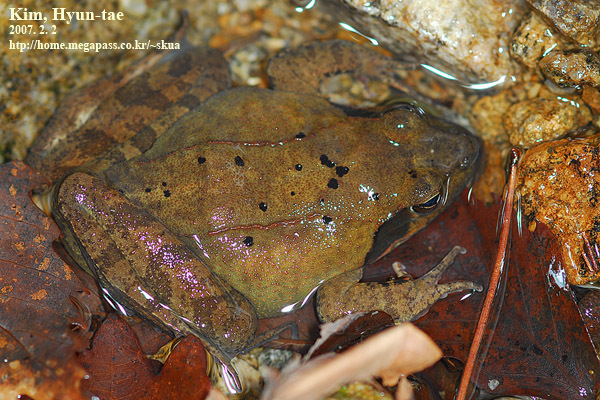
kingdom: Animalia
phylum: Chordata
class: Amphibia
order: Anura
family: Ranidae
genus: Rana
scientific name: Rana uenoi
